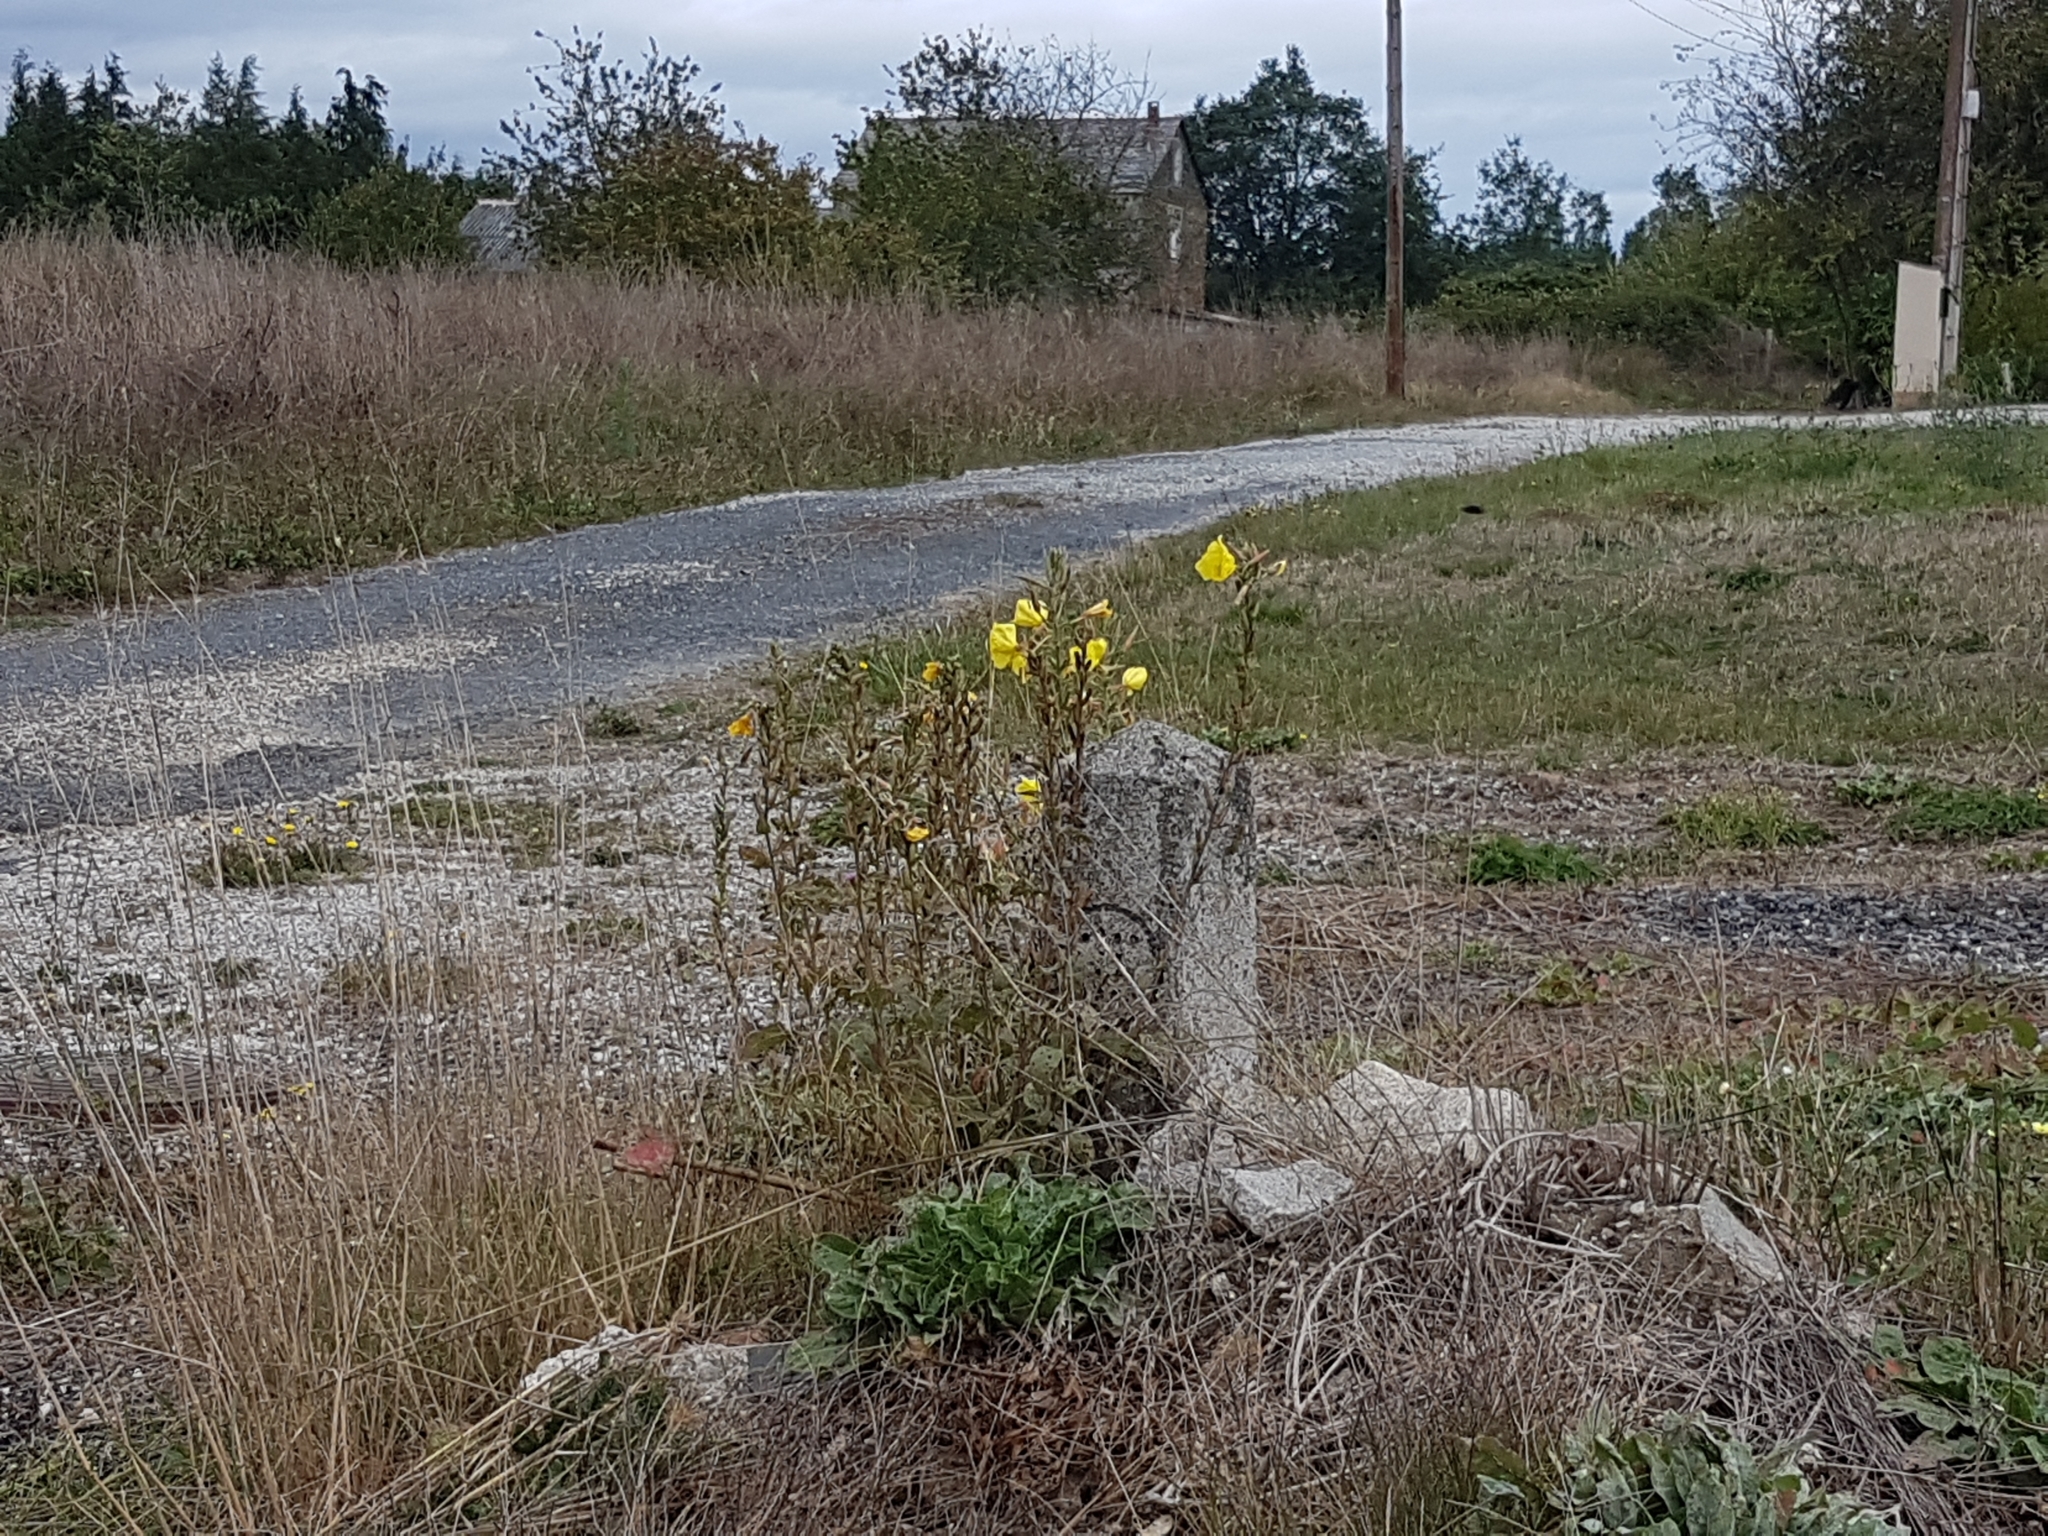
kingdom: Plantae
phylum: Tracheophyta
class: Magnoliopsida
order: Myrtales
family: Onagraceae
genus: Oenothera
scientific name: Oenothera glazioviana
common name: Large-flowered evening-primrose
